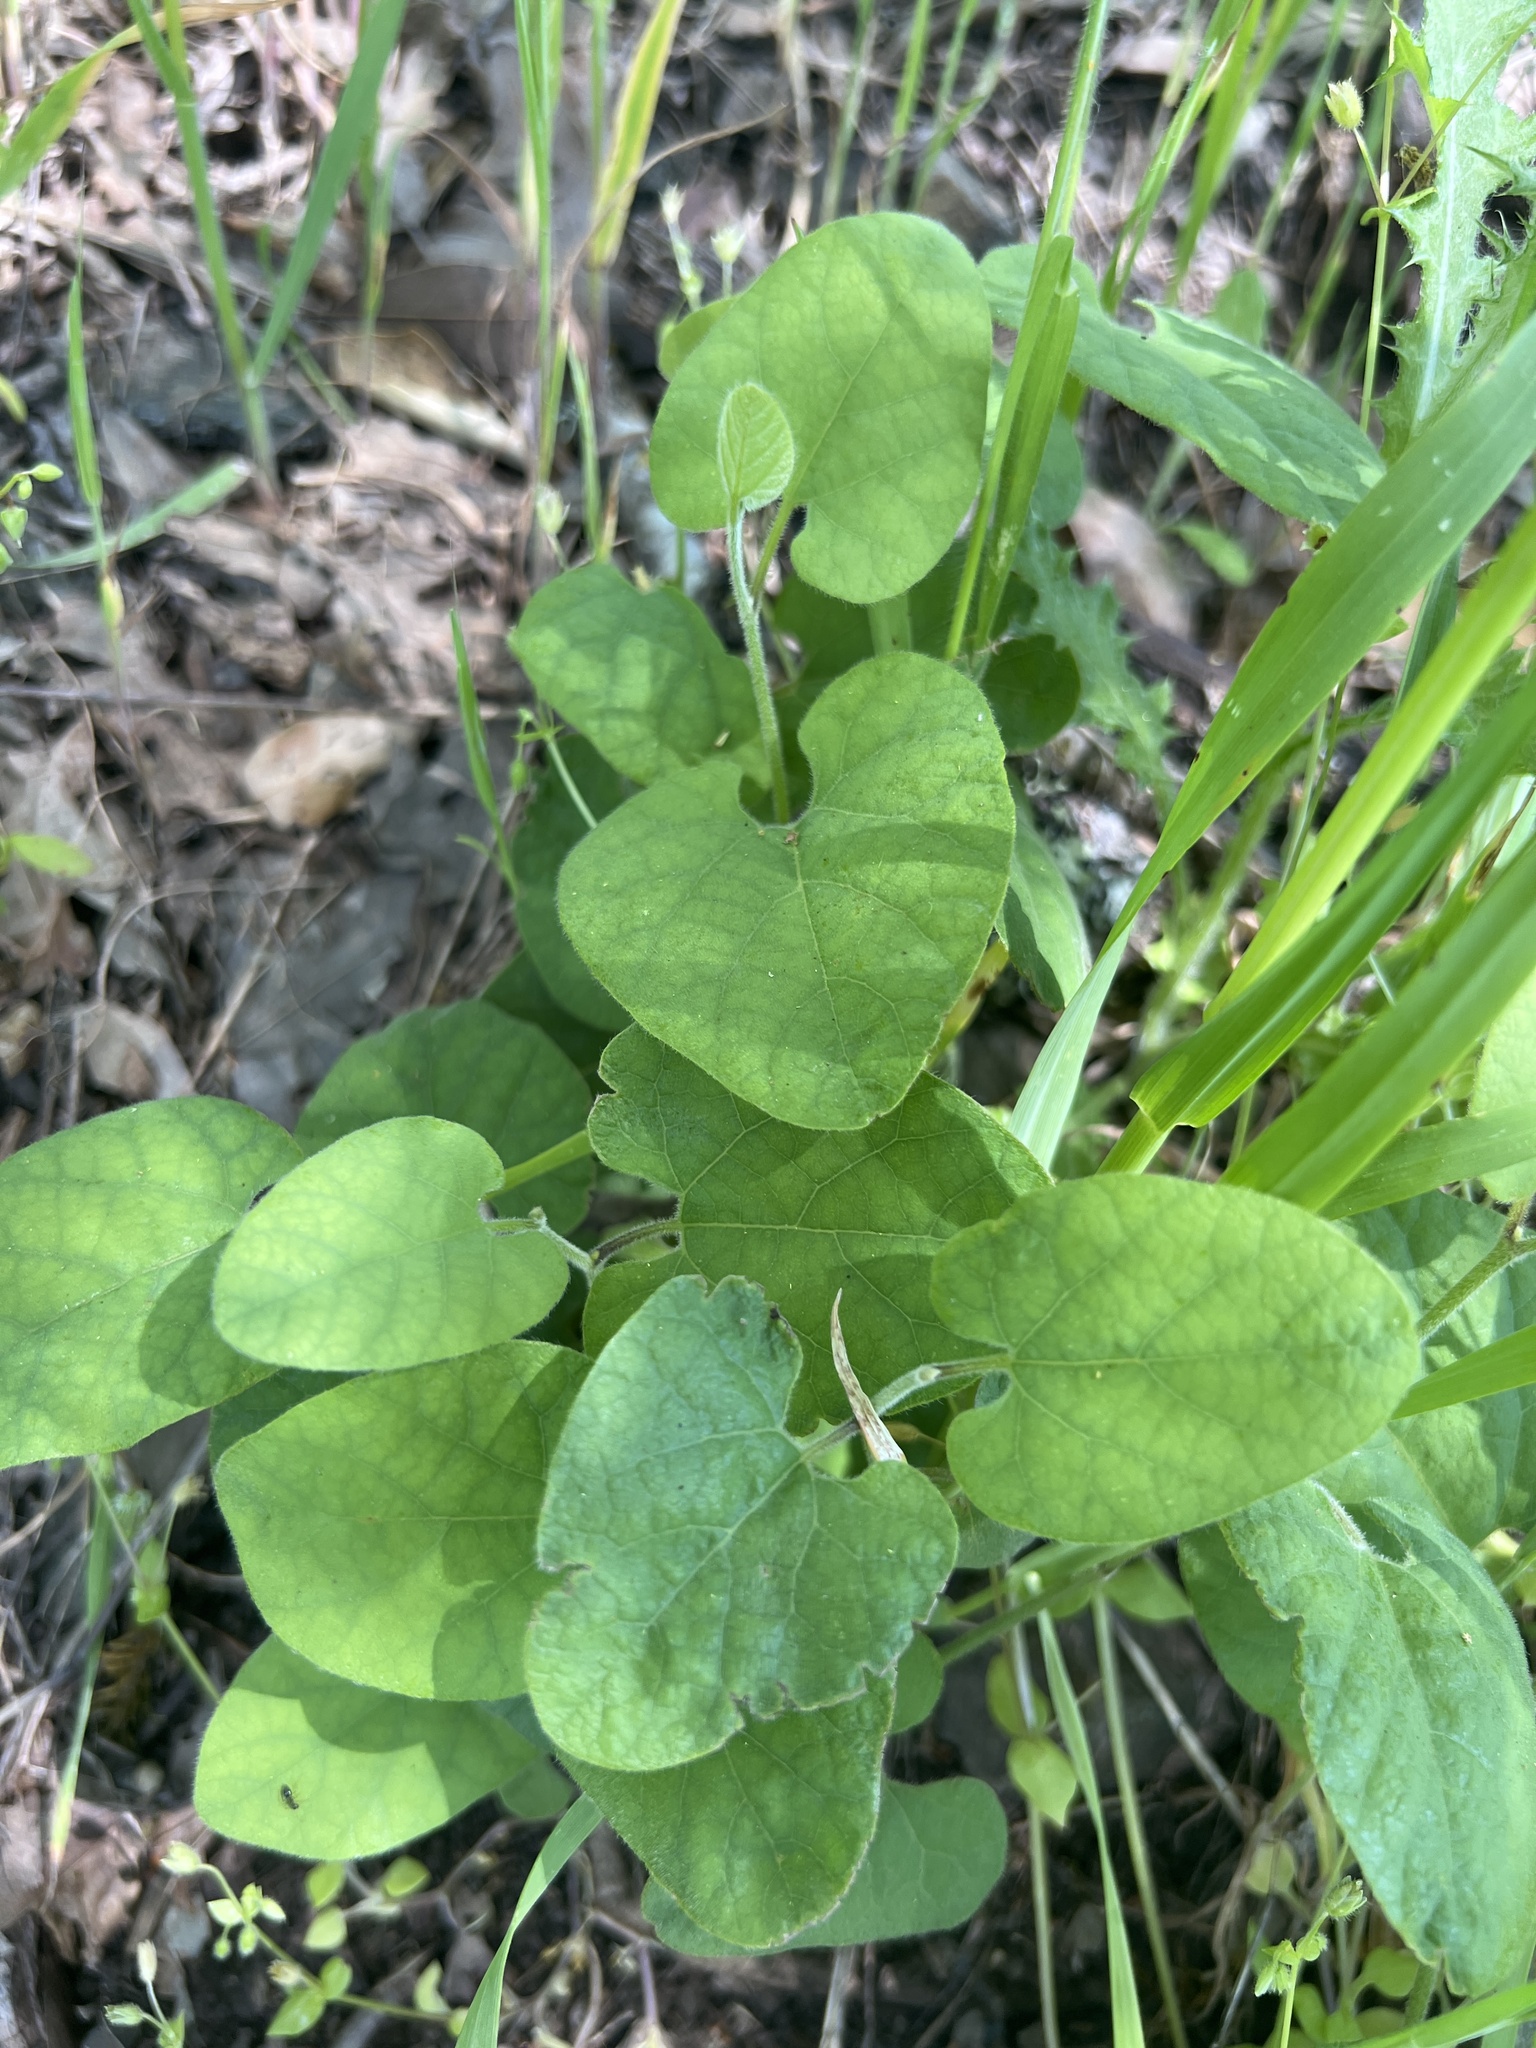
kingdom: Plantae
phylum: Tracheophyta
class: Magnoliopsida
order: Piperales
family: Aristolochiaceae
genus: Isotrema
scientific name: Isotrema californicum
